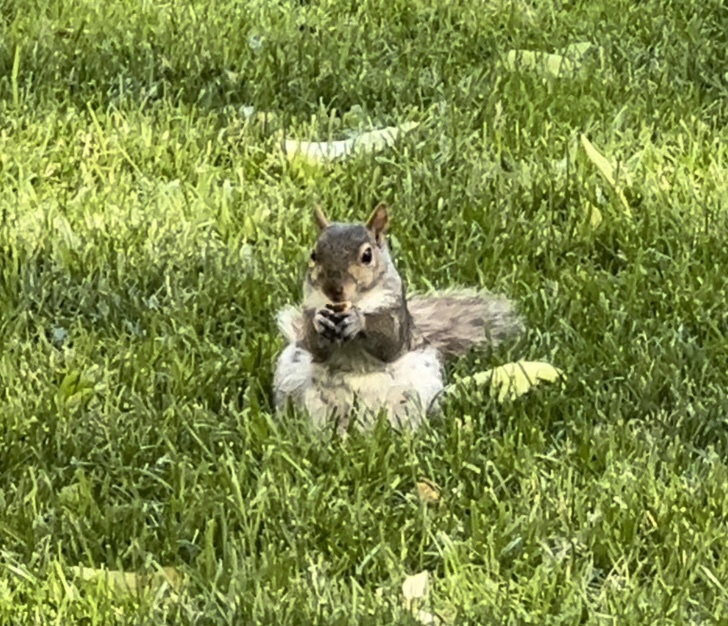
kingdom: Animalia
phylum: Chordata
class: Mammalia
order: Rodentia
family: Sciuridae
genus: Sciurus
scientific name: Sciurus carolinensis
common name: Eastern gray squirrel
